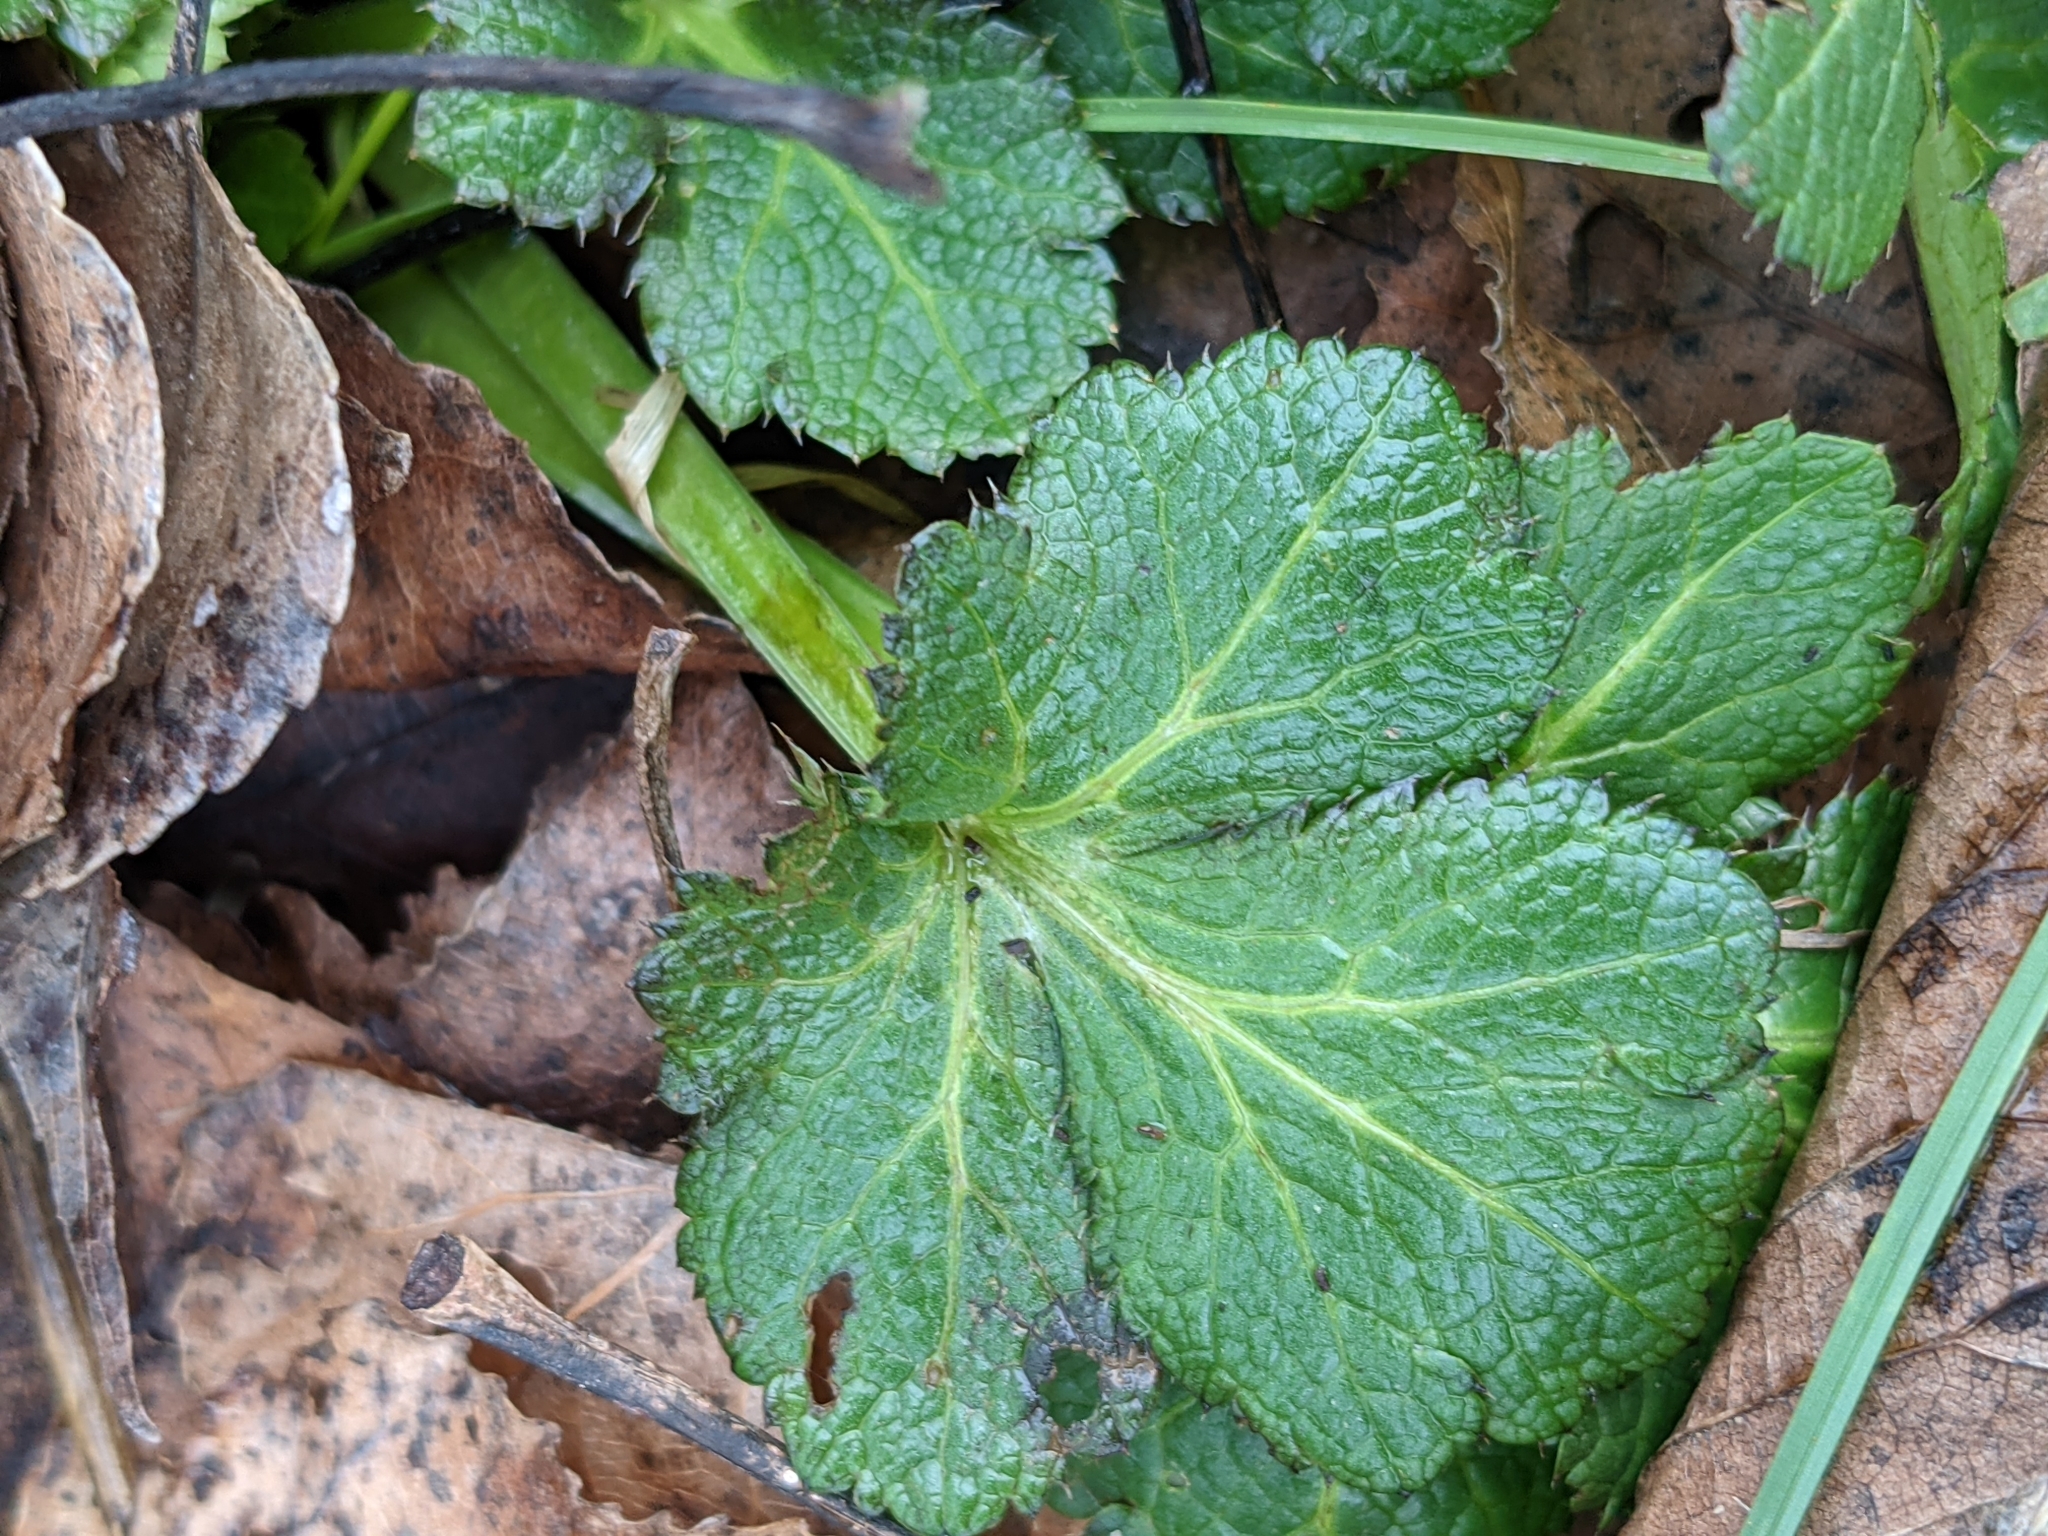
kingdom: Plantae
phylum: Tracheophyta
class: Magnoliopsida
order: Apiales
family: Apiaceae
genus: Sanicula
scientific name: Sanicula crassicaulis
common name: Western snakeroot
